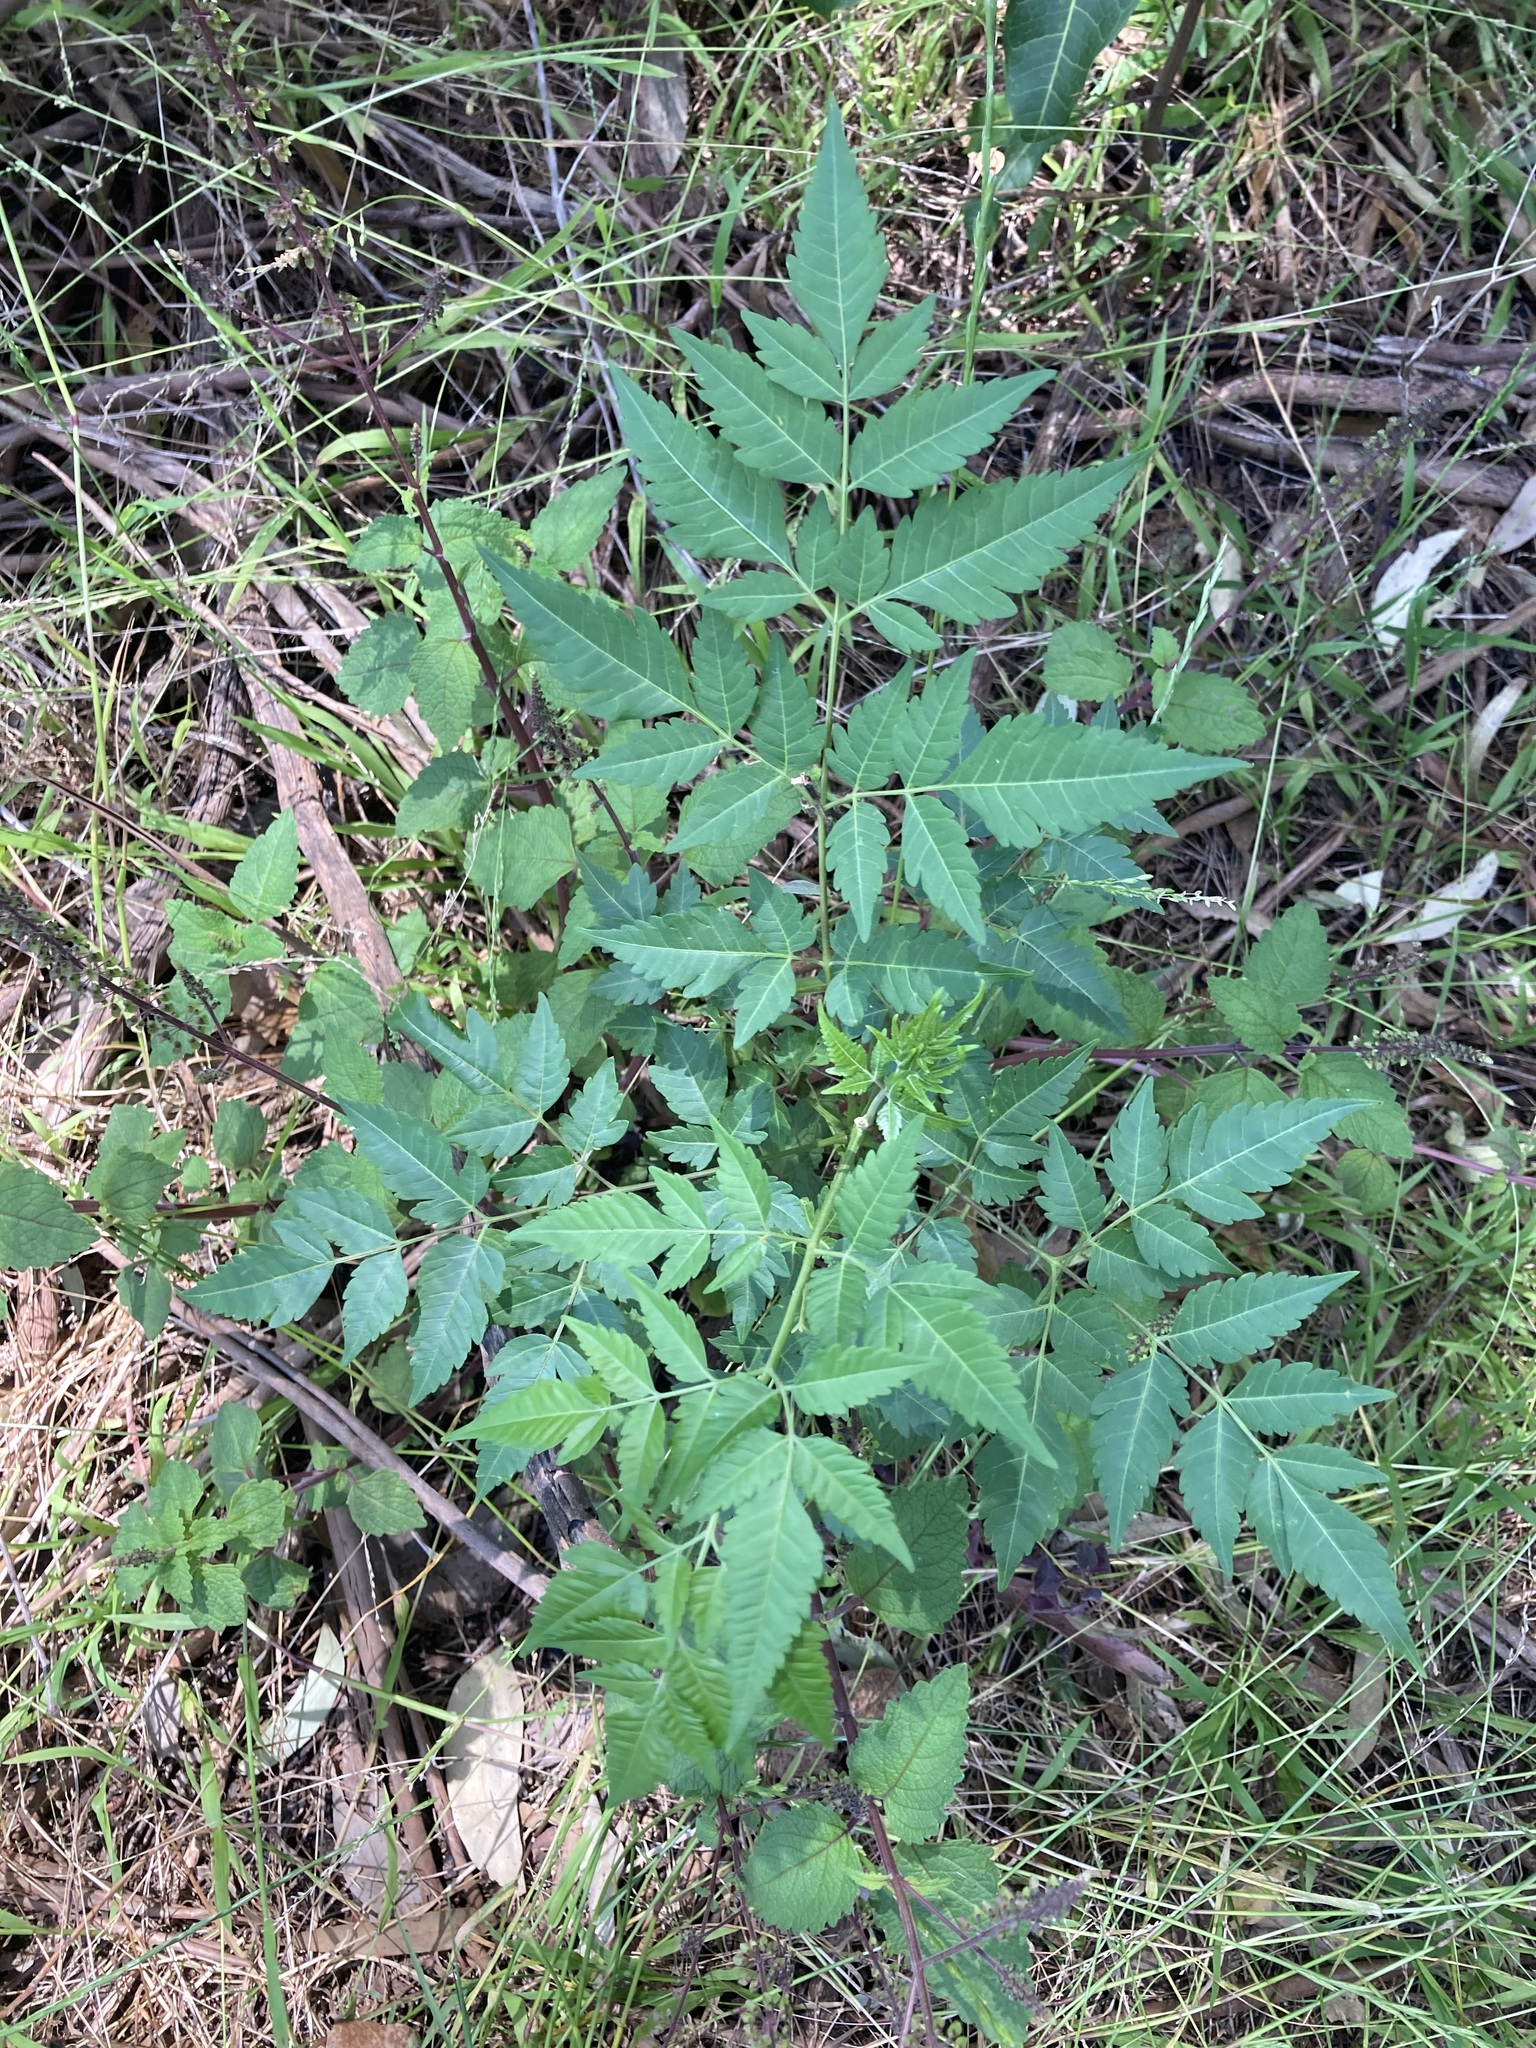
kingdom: Plantae
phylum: Tracheophyta
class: Magnoliopsida
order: Sapindales
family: Meliaceae
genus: Melia
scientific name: Melia azedarach
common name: Chinaberrytree
